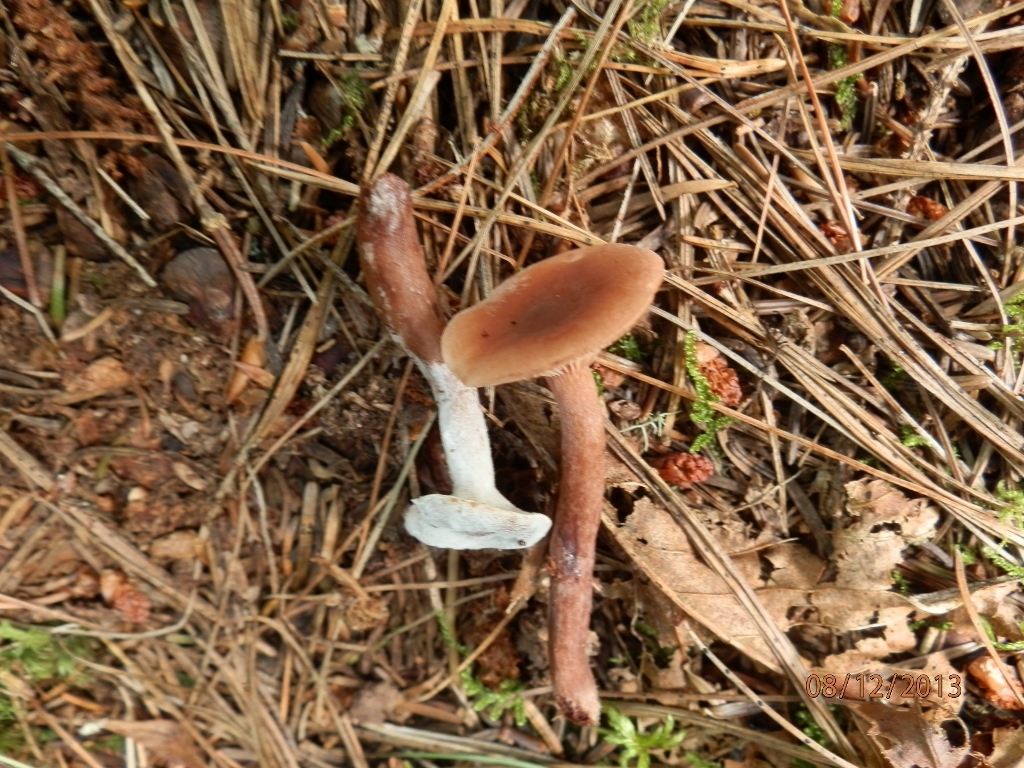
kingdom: Fungi
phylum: Ascomycota
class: Sordariomycetes
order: Hypocreales
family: Hypocreaceae
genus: Hypomyces
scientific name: Hypomyces ochraceus
